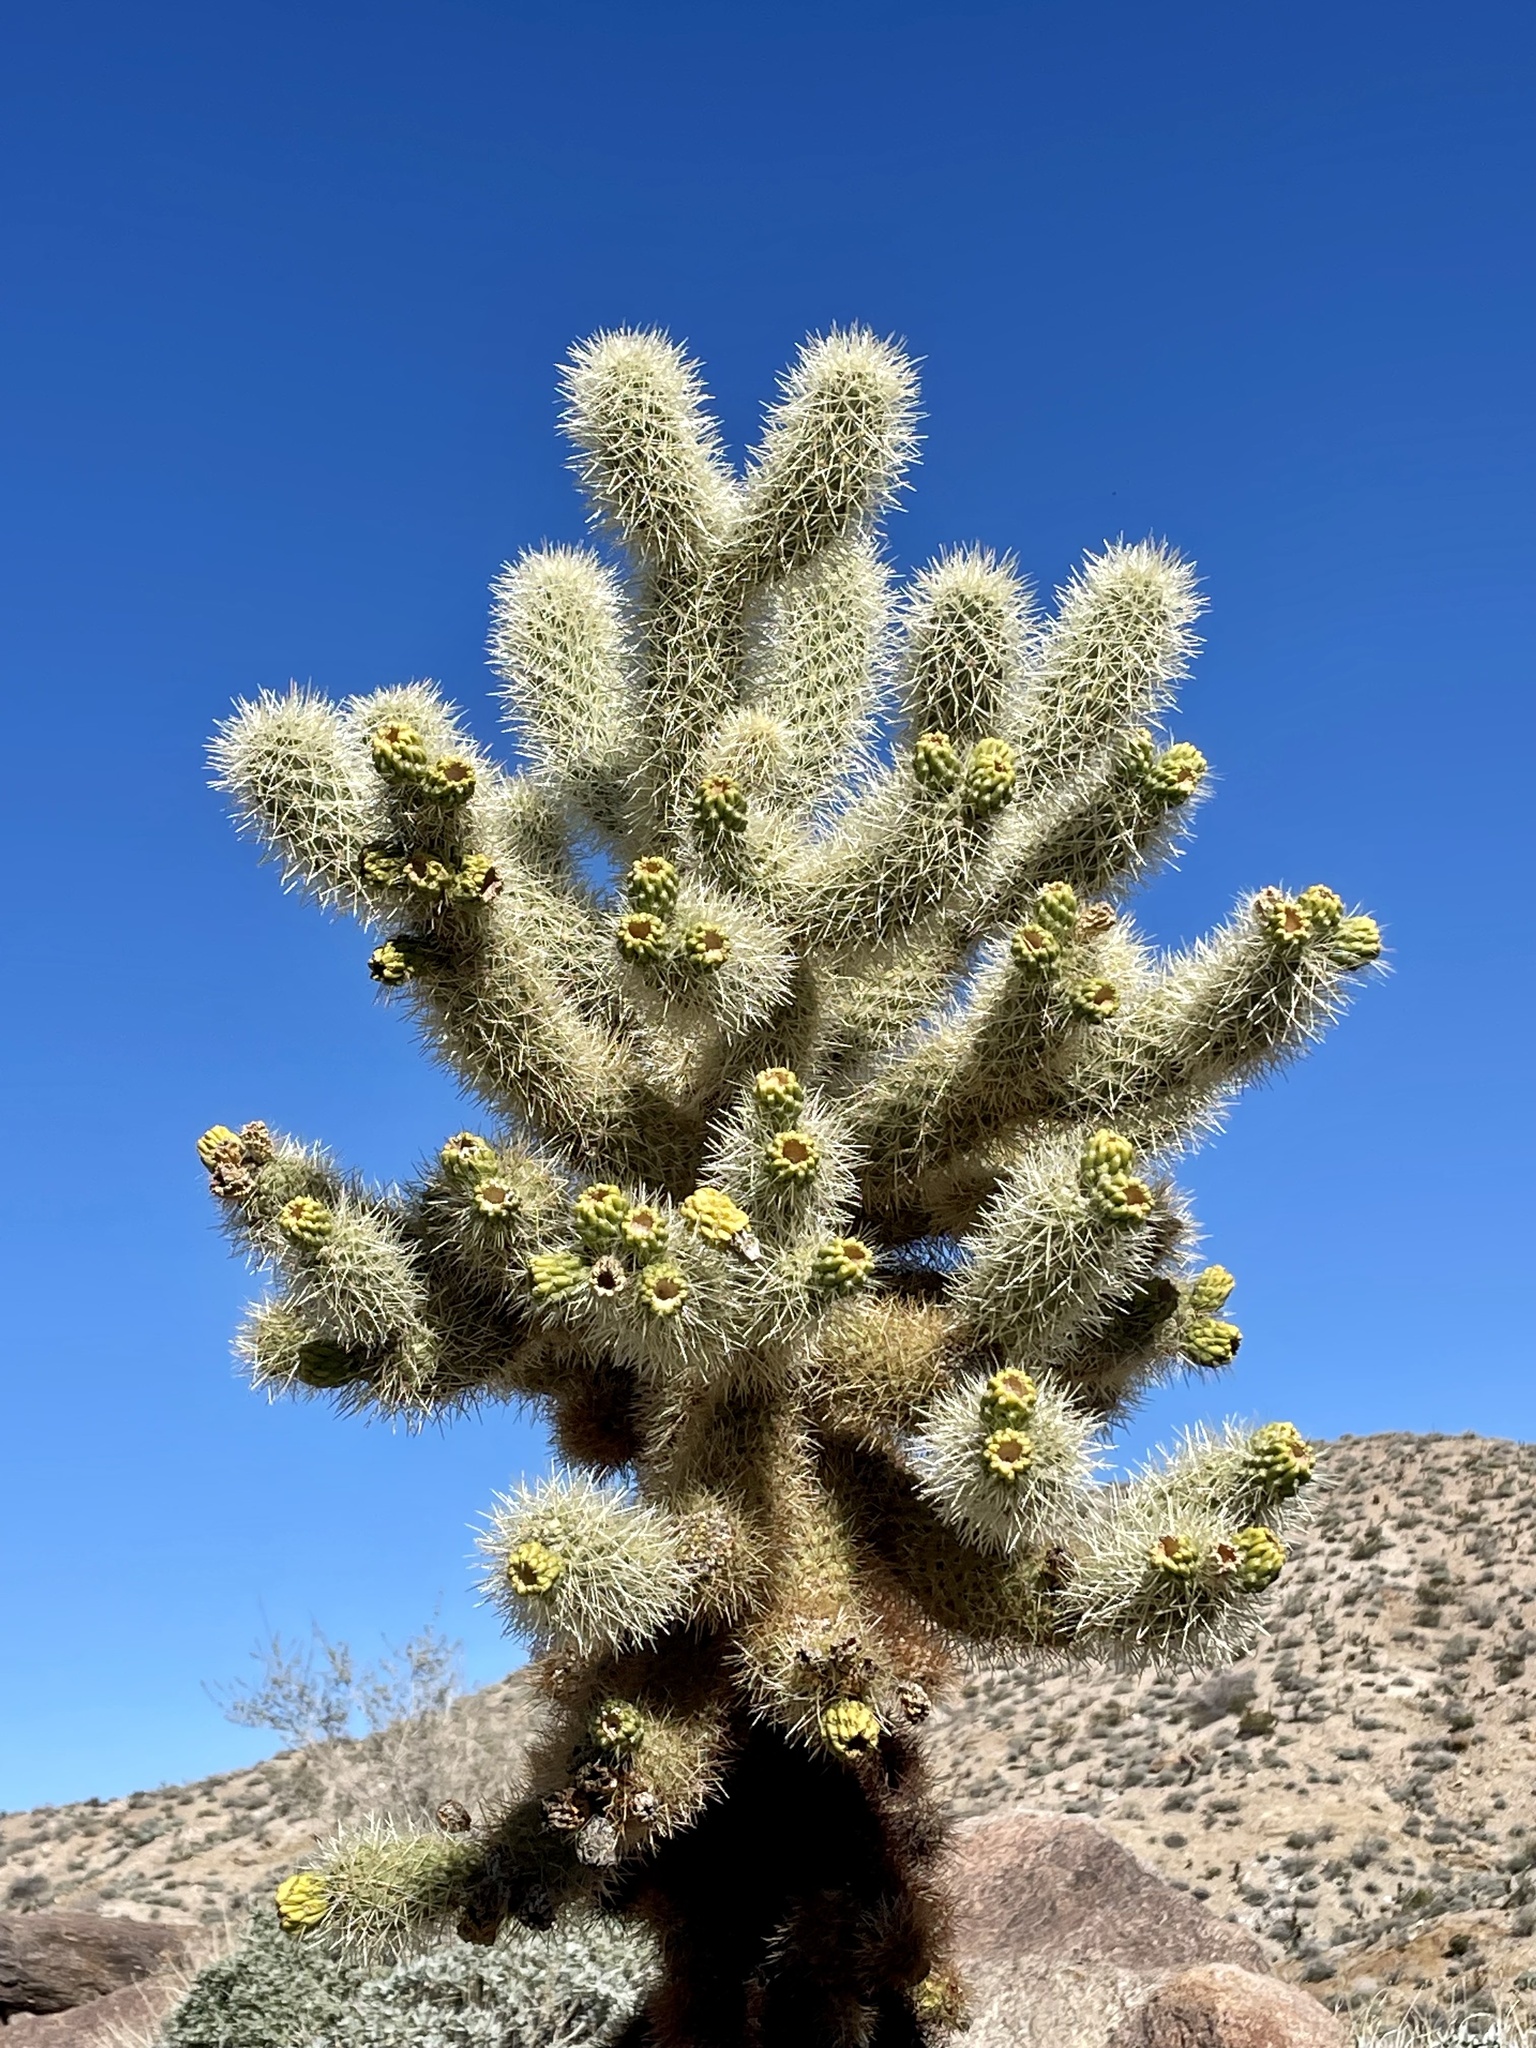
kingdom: Plantae
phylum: Tracheophyta
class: Magnoliopsida
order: Caryophyllales
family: Cactaceae
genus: Cylindropuntia
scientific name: Cylindropuntia fosbergii
